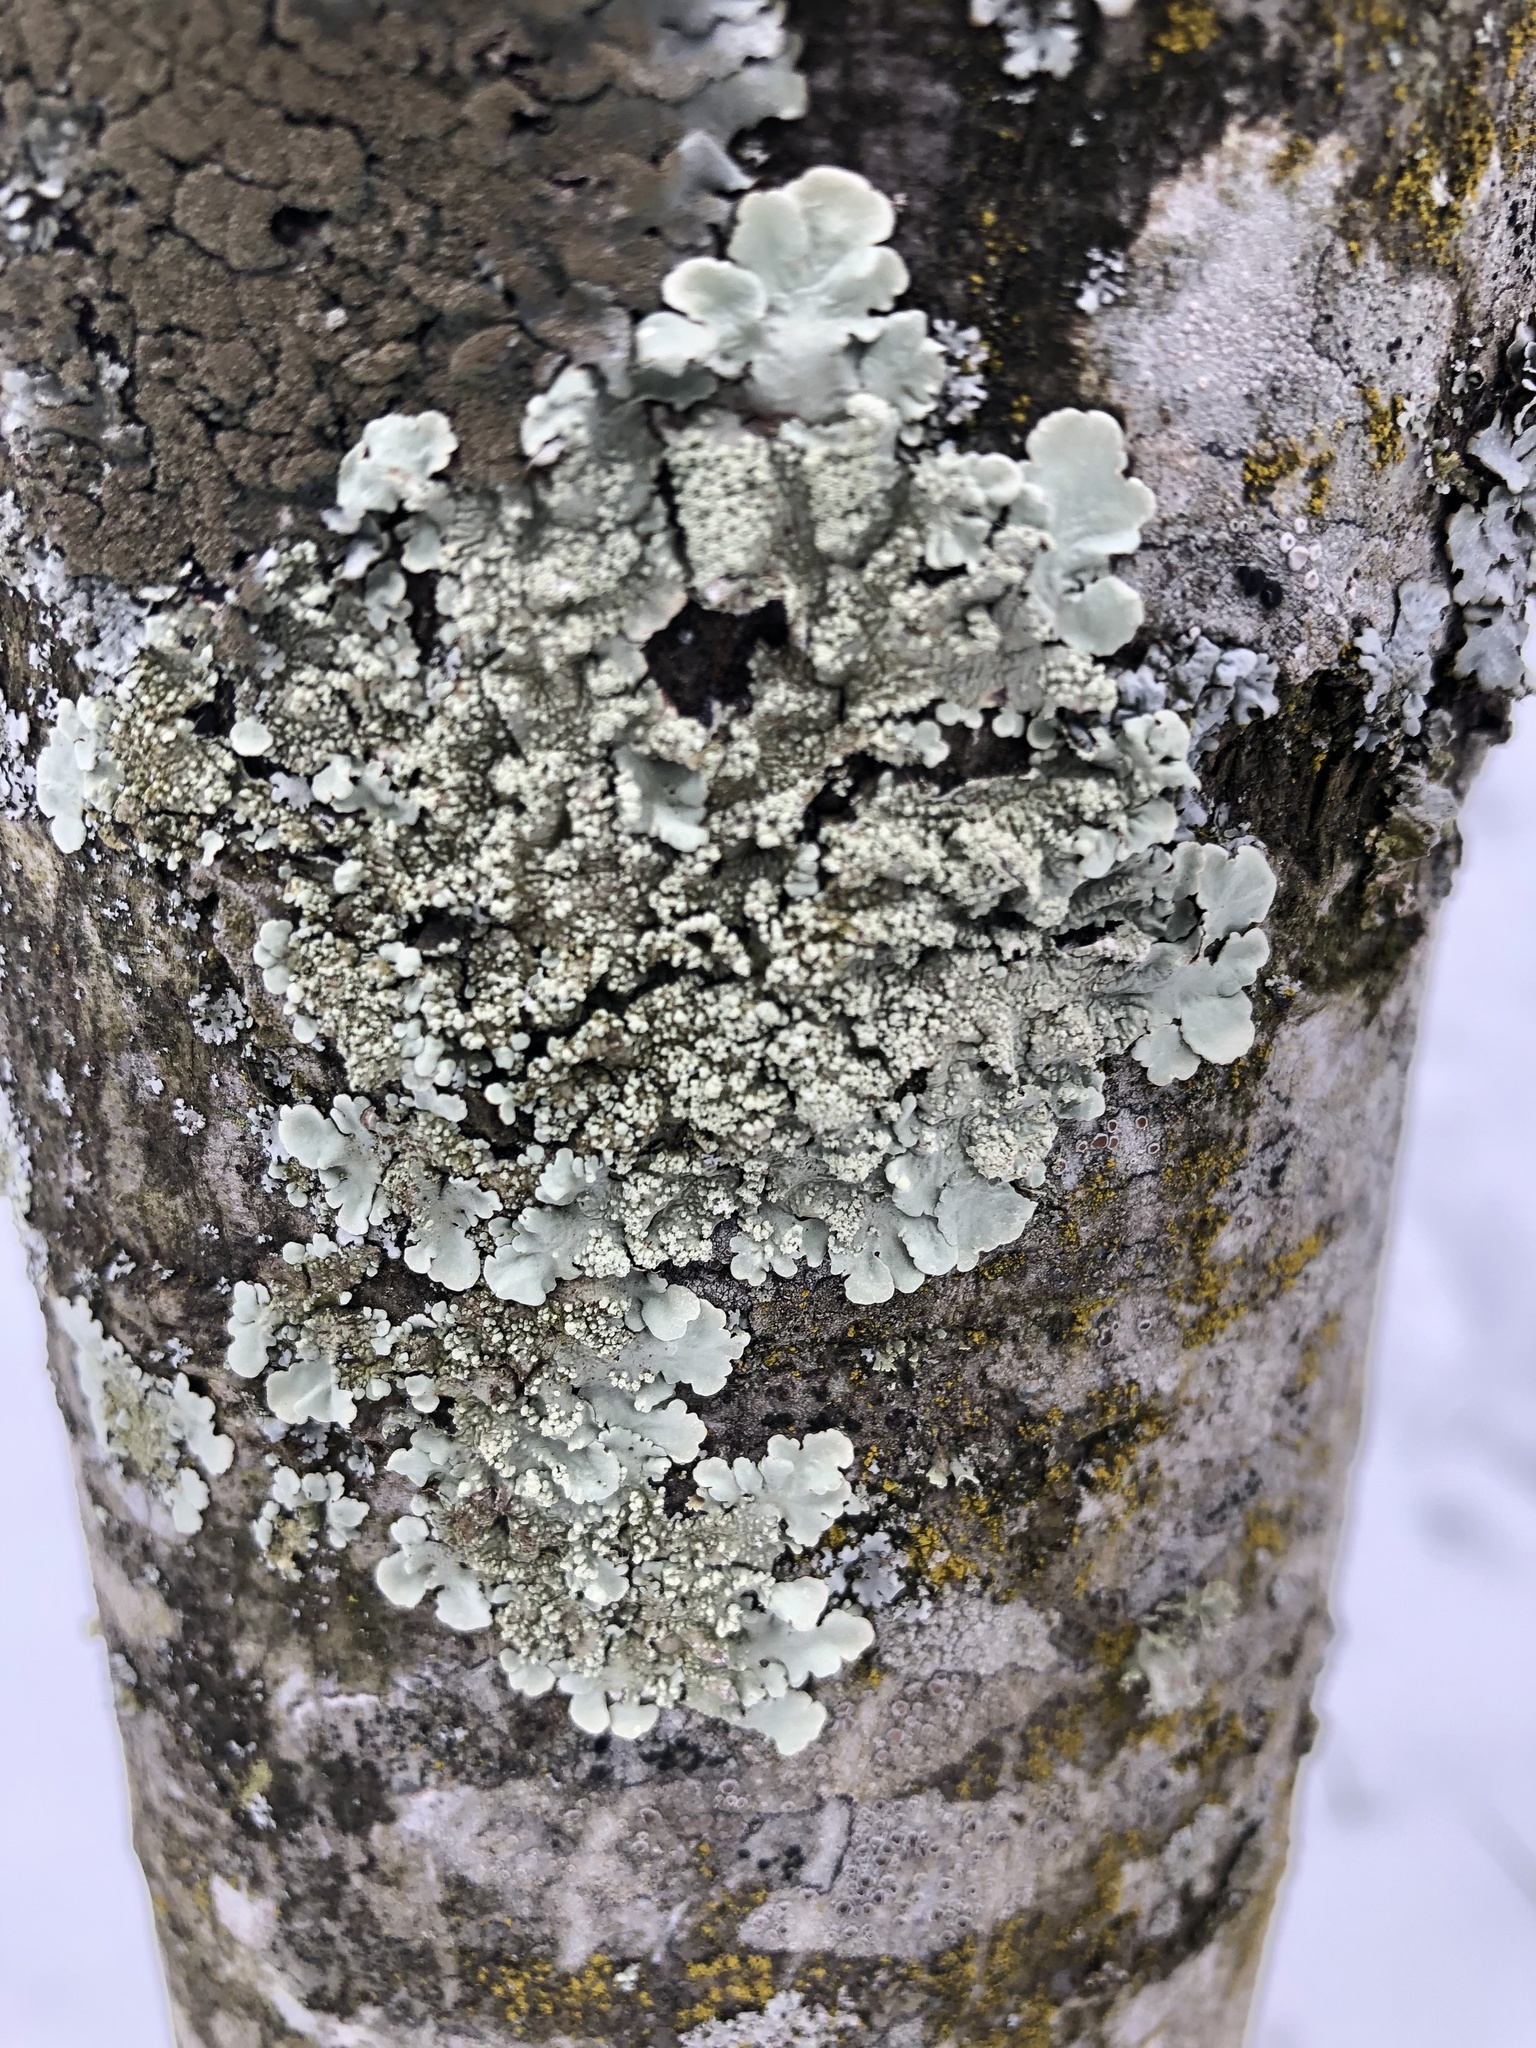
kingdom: Fungi
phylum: Ascomycota
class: Lecanoromycetes
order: Lecanorales
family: Parmeliaceae
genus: Flavoparmelia
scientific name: Flavoparmelia caperata
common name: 40-mile per hour lichen
